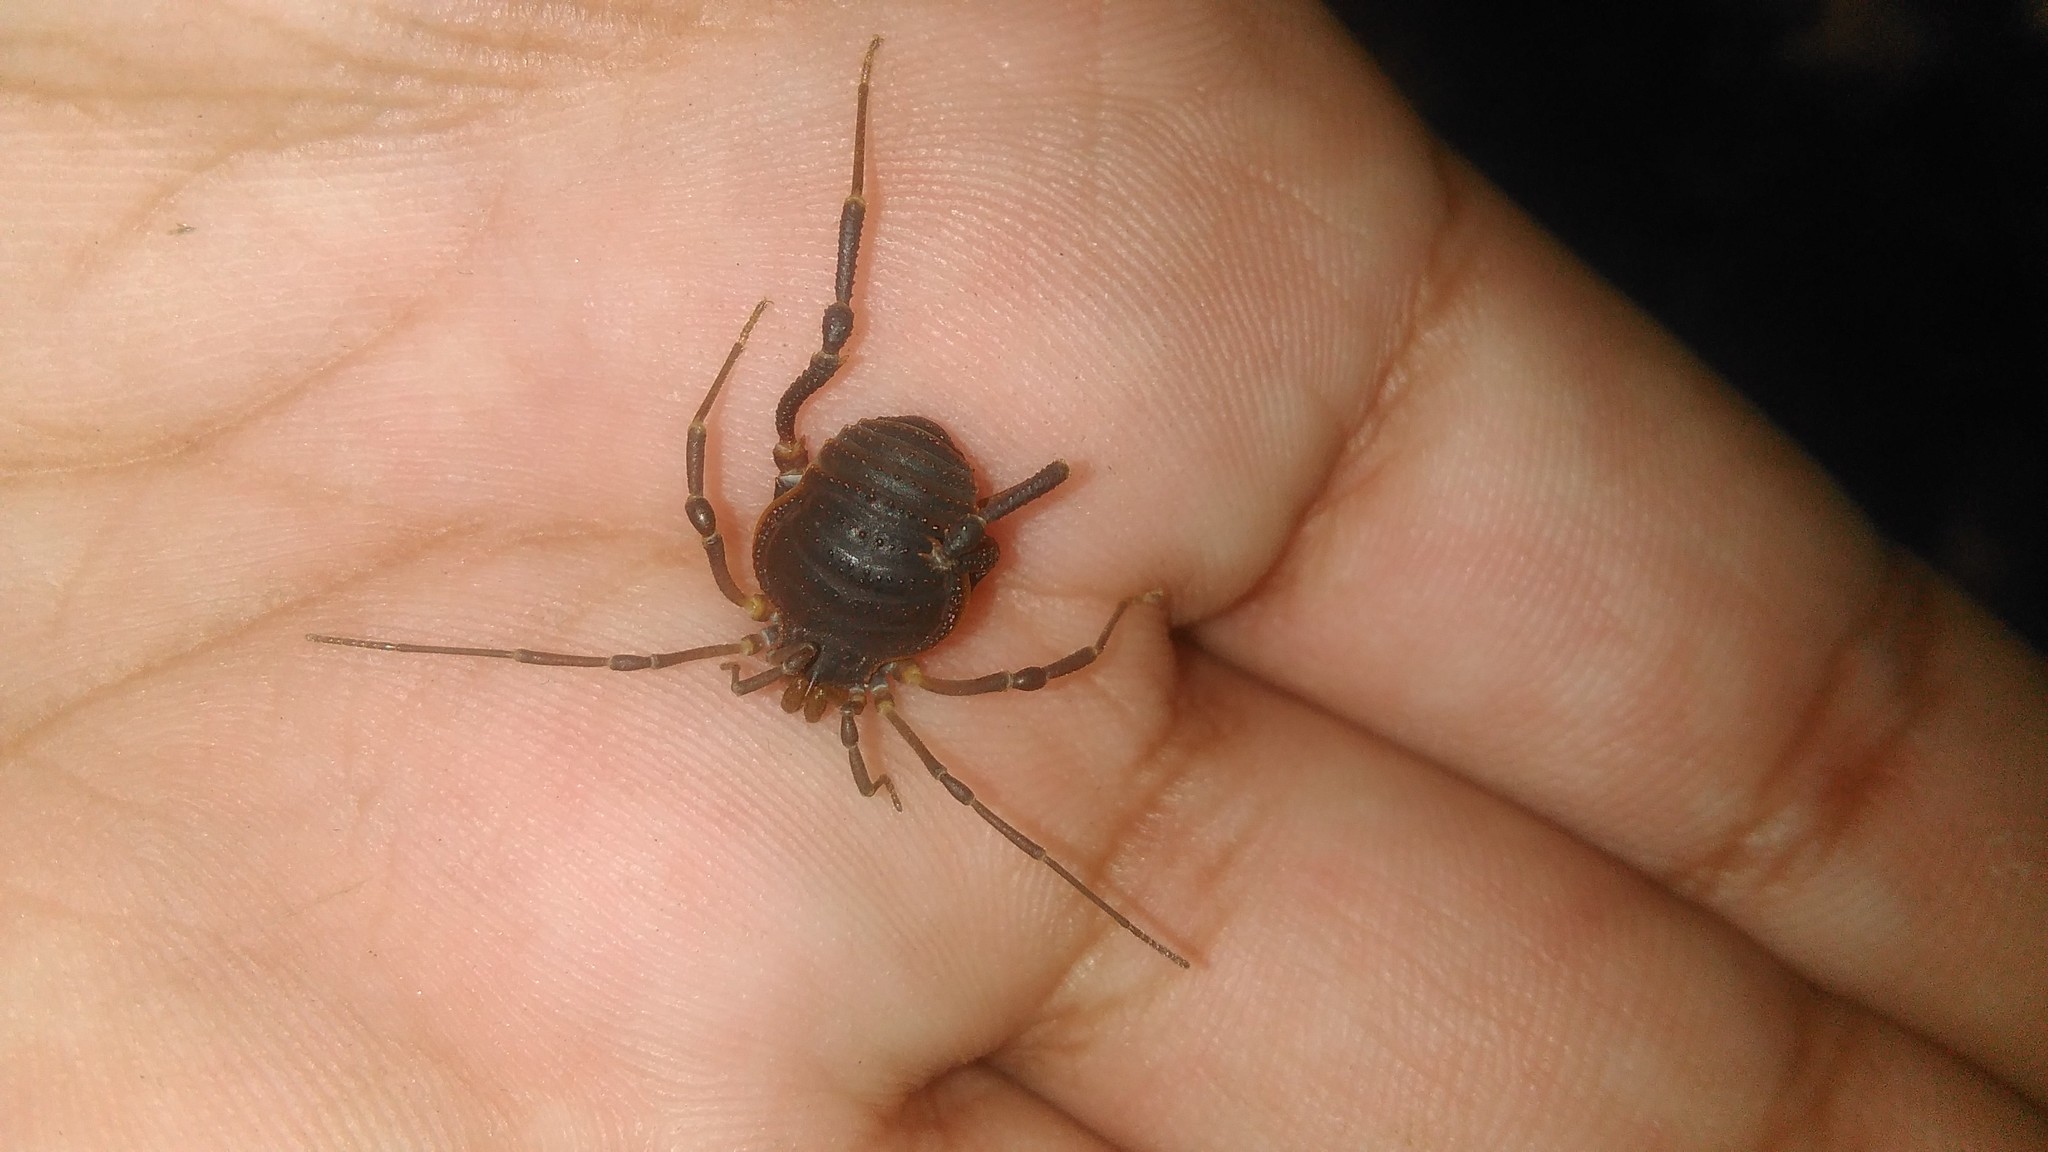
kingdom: Animalia
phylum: Arthropoda
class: Arachnida
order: Opiliones
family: Gonyleptidae
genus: Acanthopachylus
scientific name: Acanthopachylus robustus
